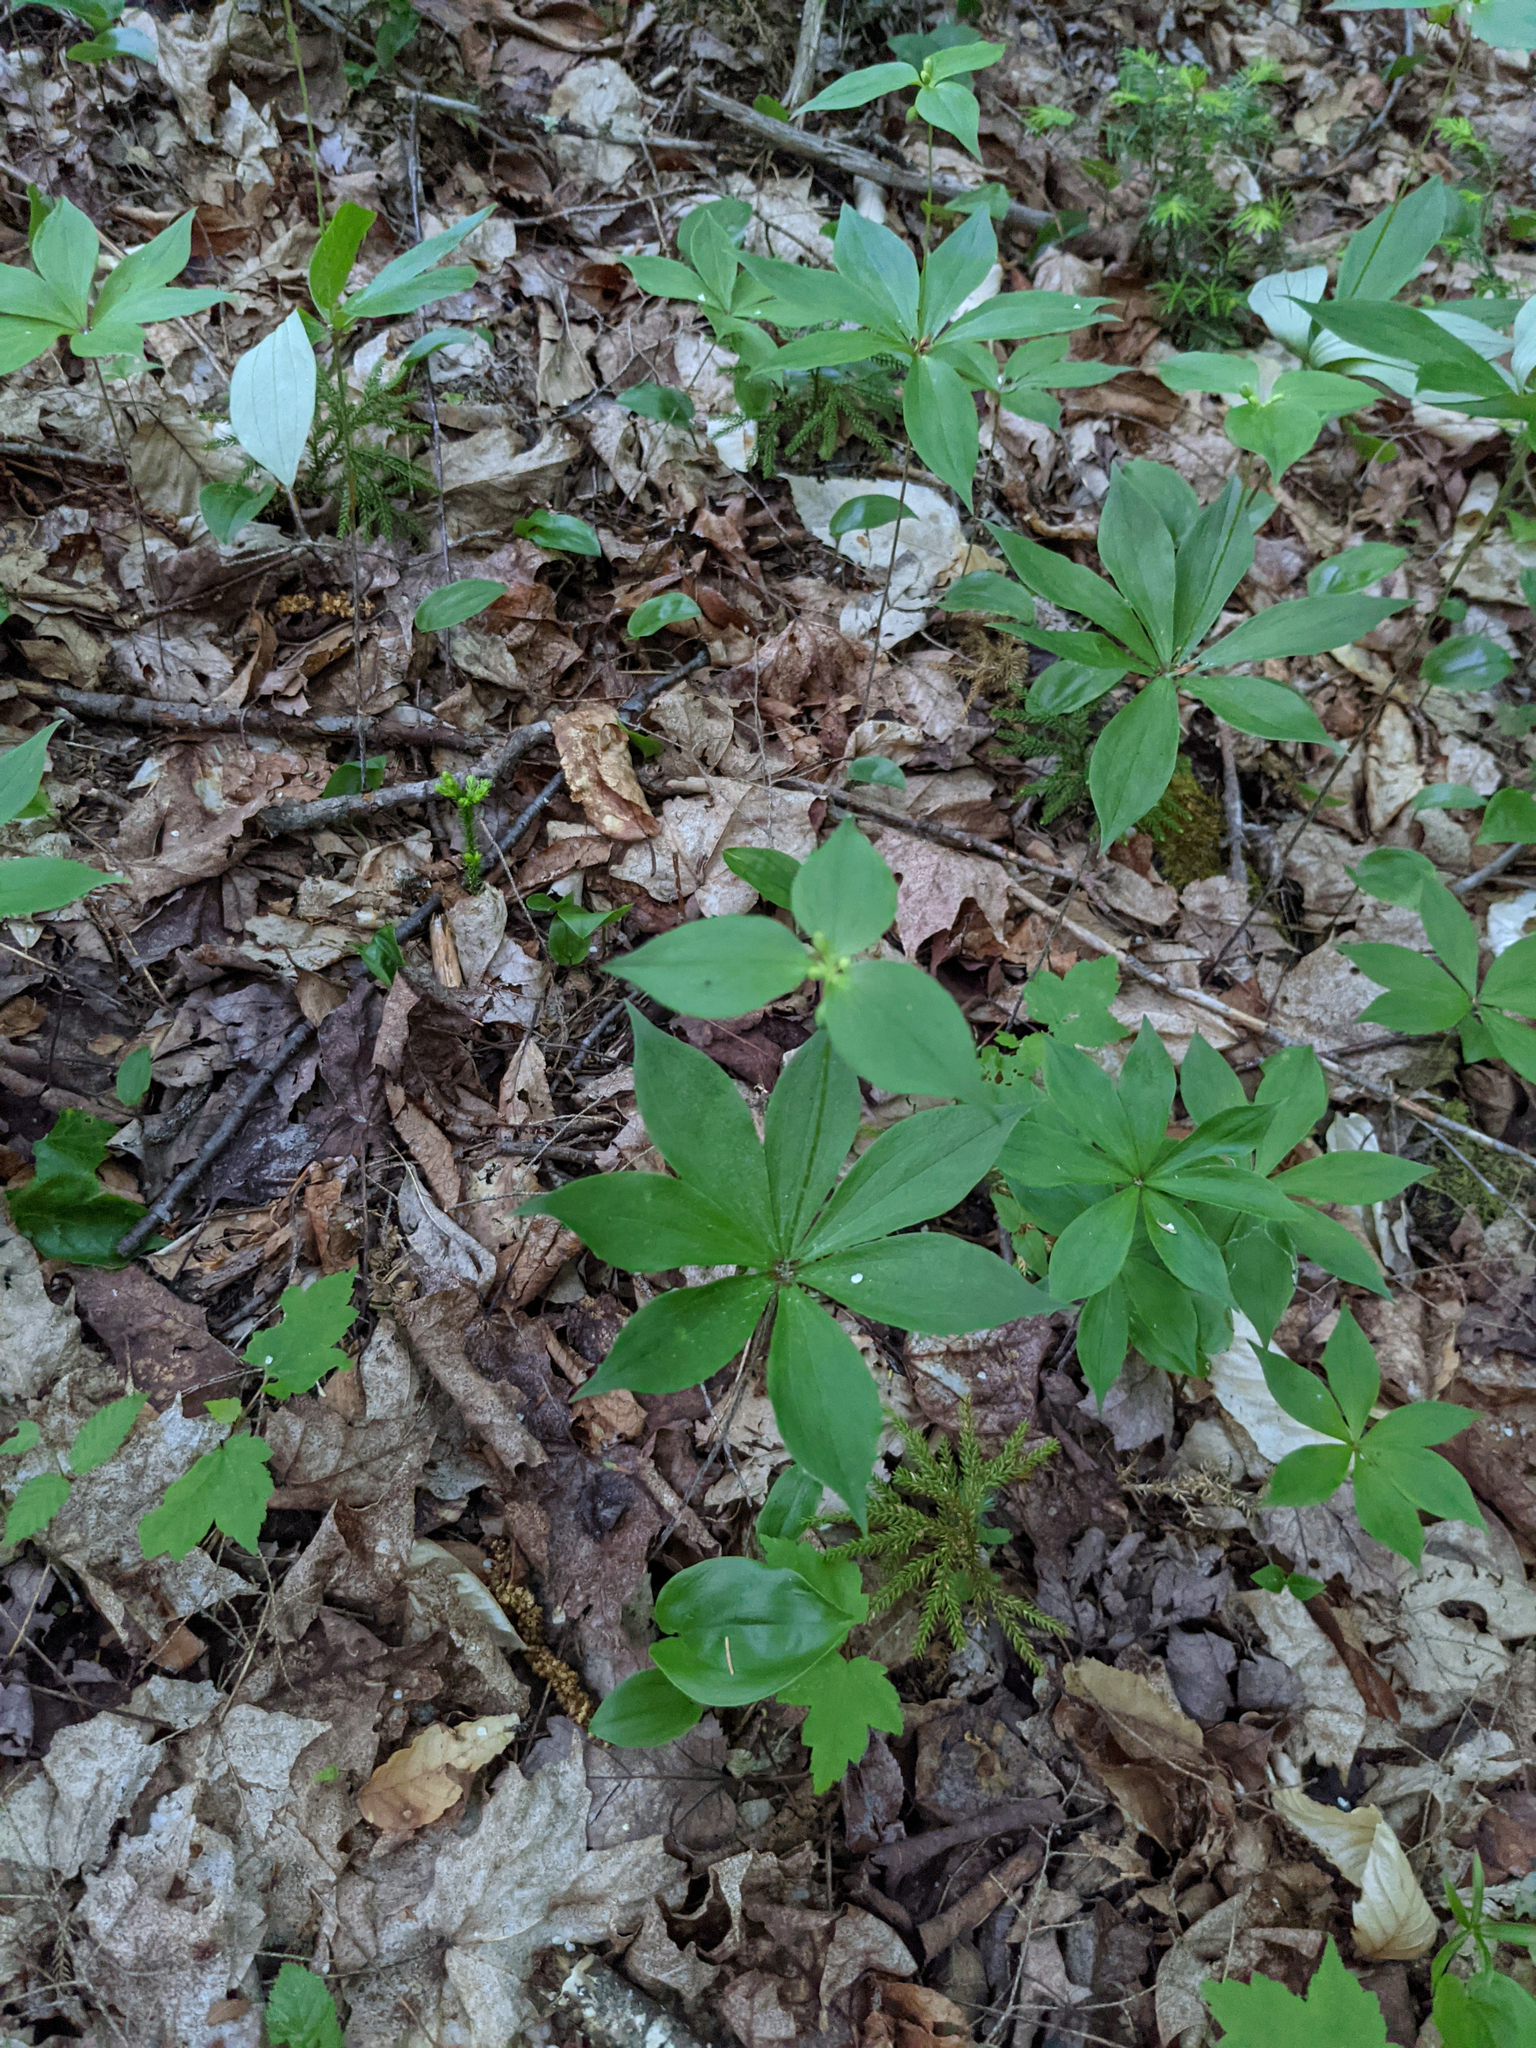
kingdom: Plantae
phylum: Tracheophyta
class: Liliopsida
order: Liliales
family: Liliaceae
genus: Medeola
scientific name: Medeola virginiana
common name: Indian cucumber-root
